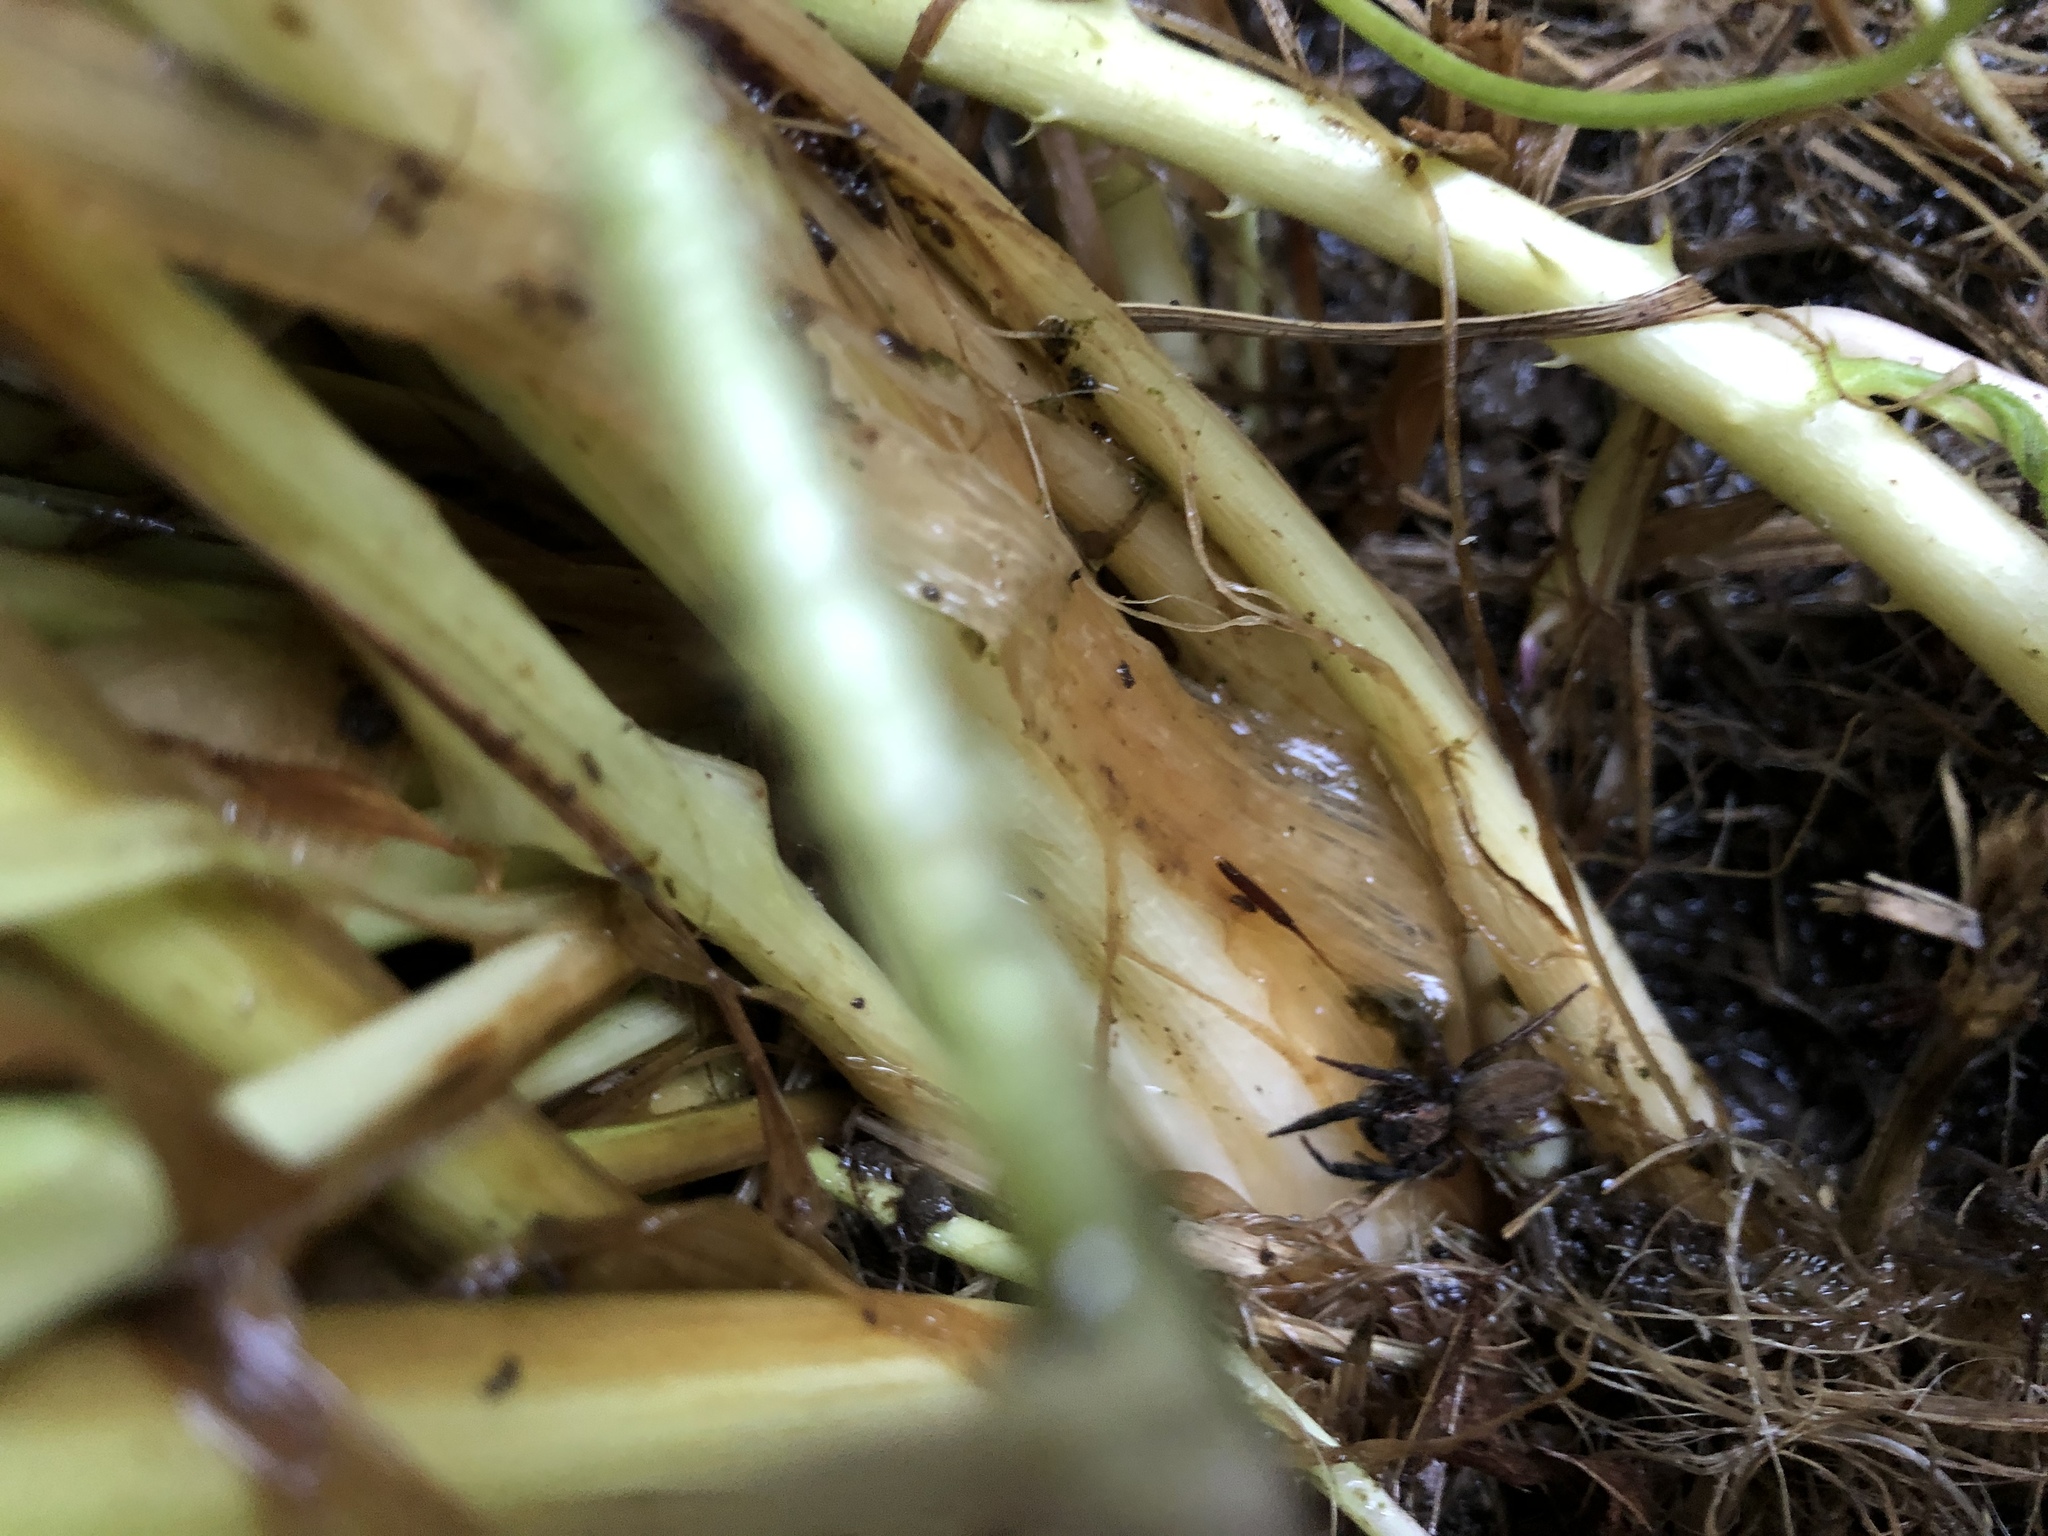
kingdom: Animalia
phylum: Arthropoda
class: Arachnida
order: Araneae
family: Salticidae
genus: Trite
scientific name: Trite auricoma
